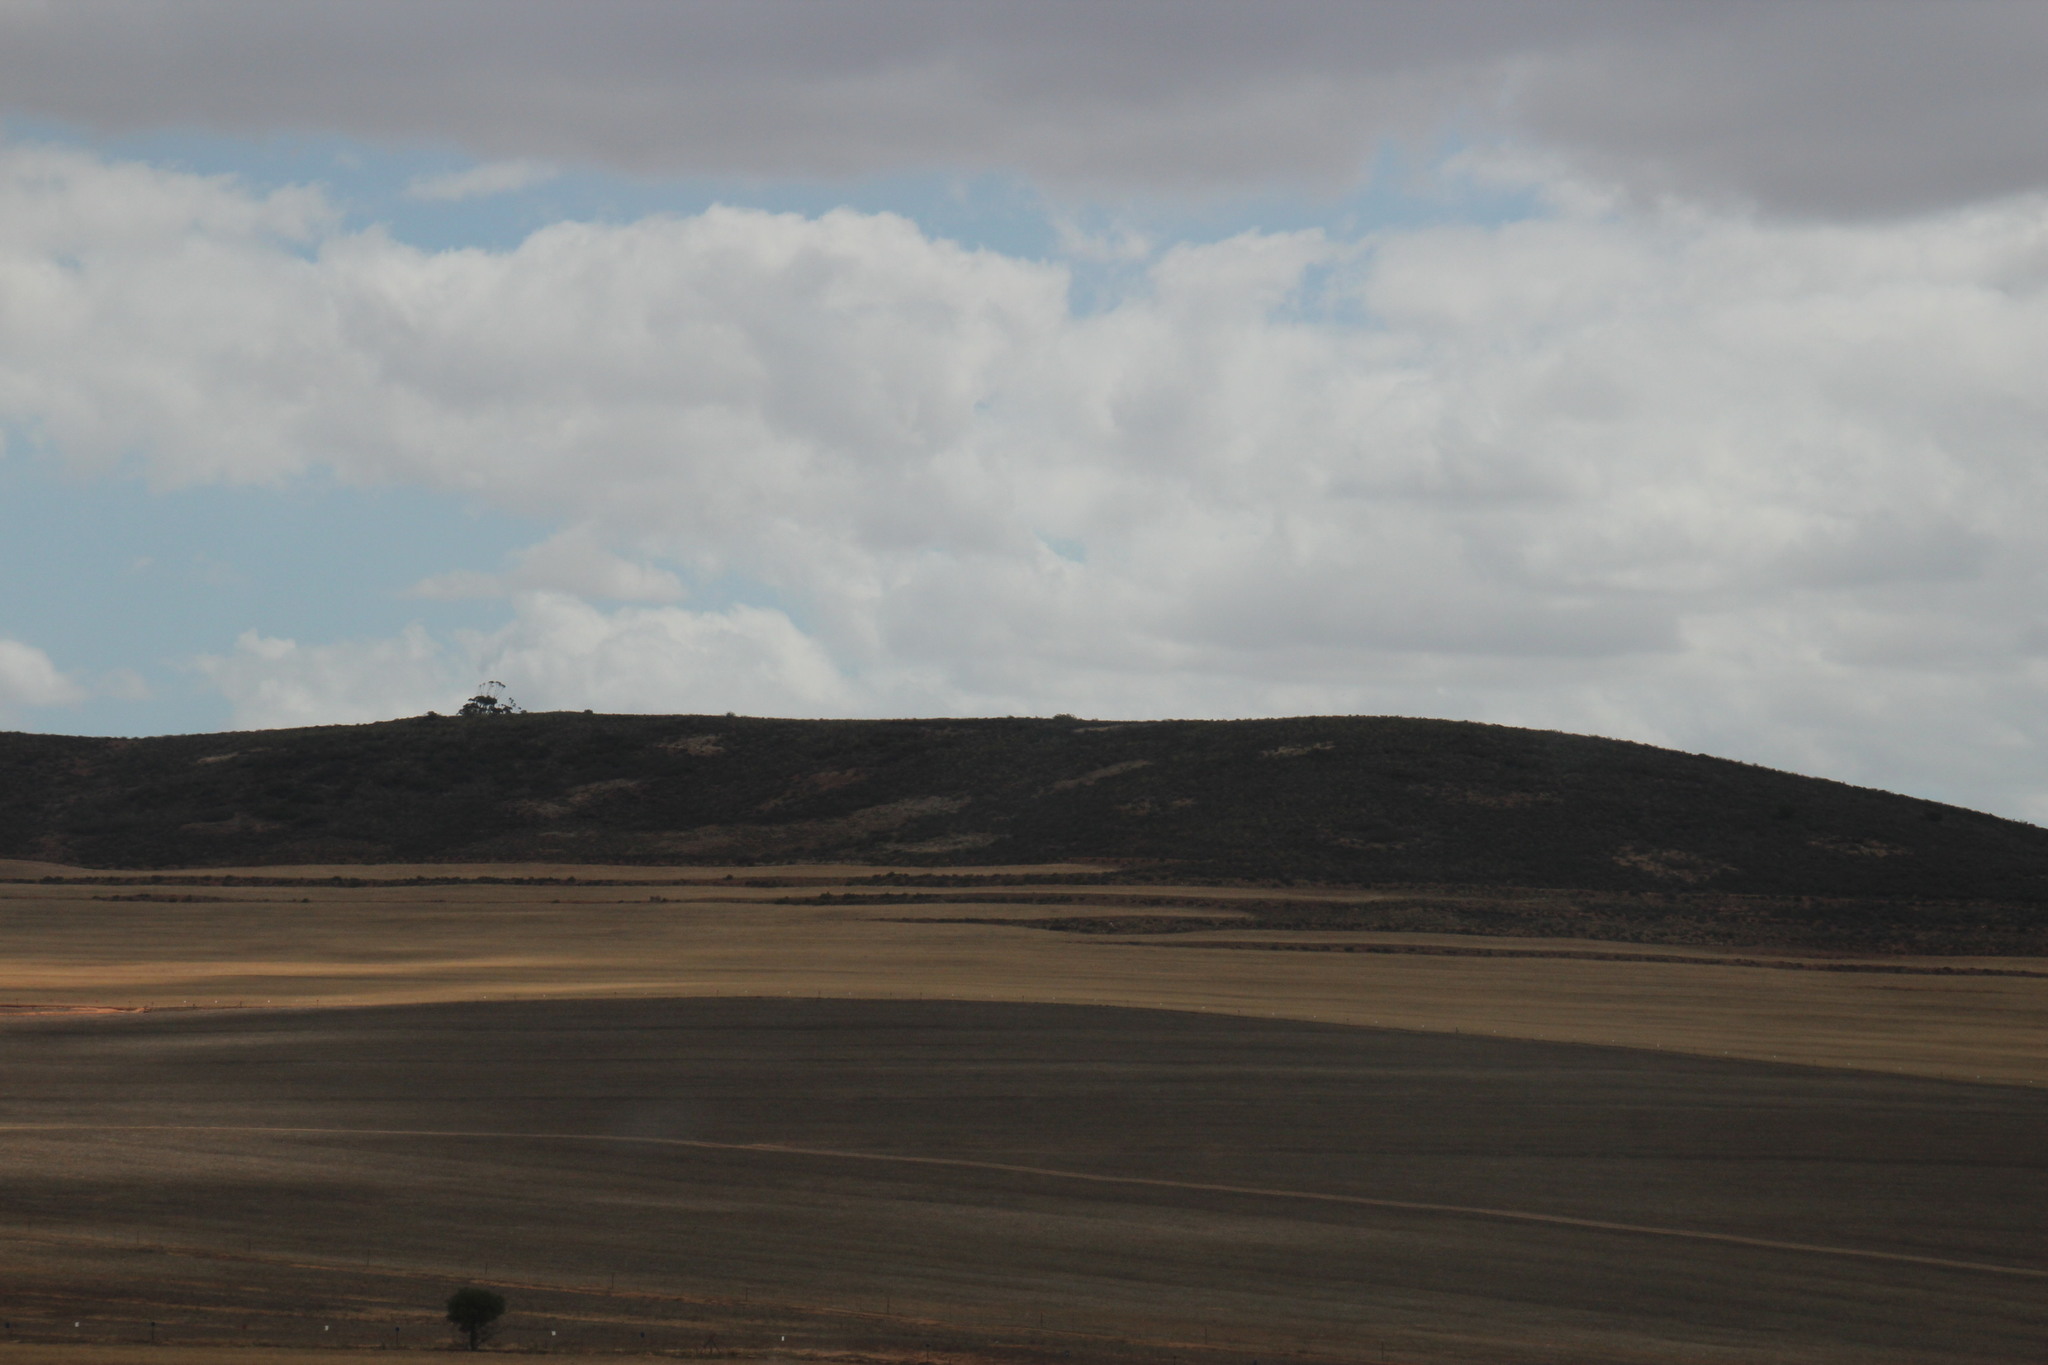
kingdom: Animalia
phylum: Arthropoda
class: Insecta
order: Blattodea
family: Hodotermitidae
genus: Microhodotermes
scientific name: Microhodotermes viator
